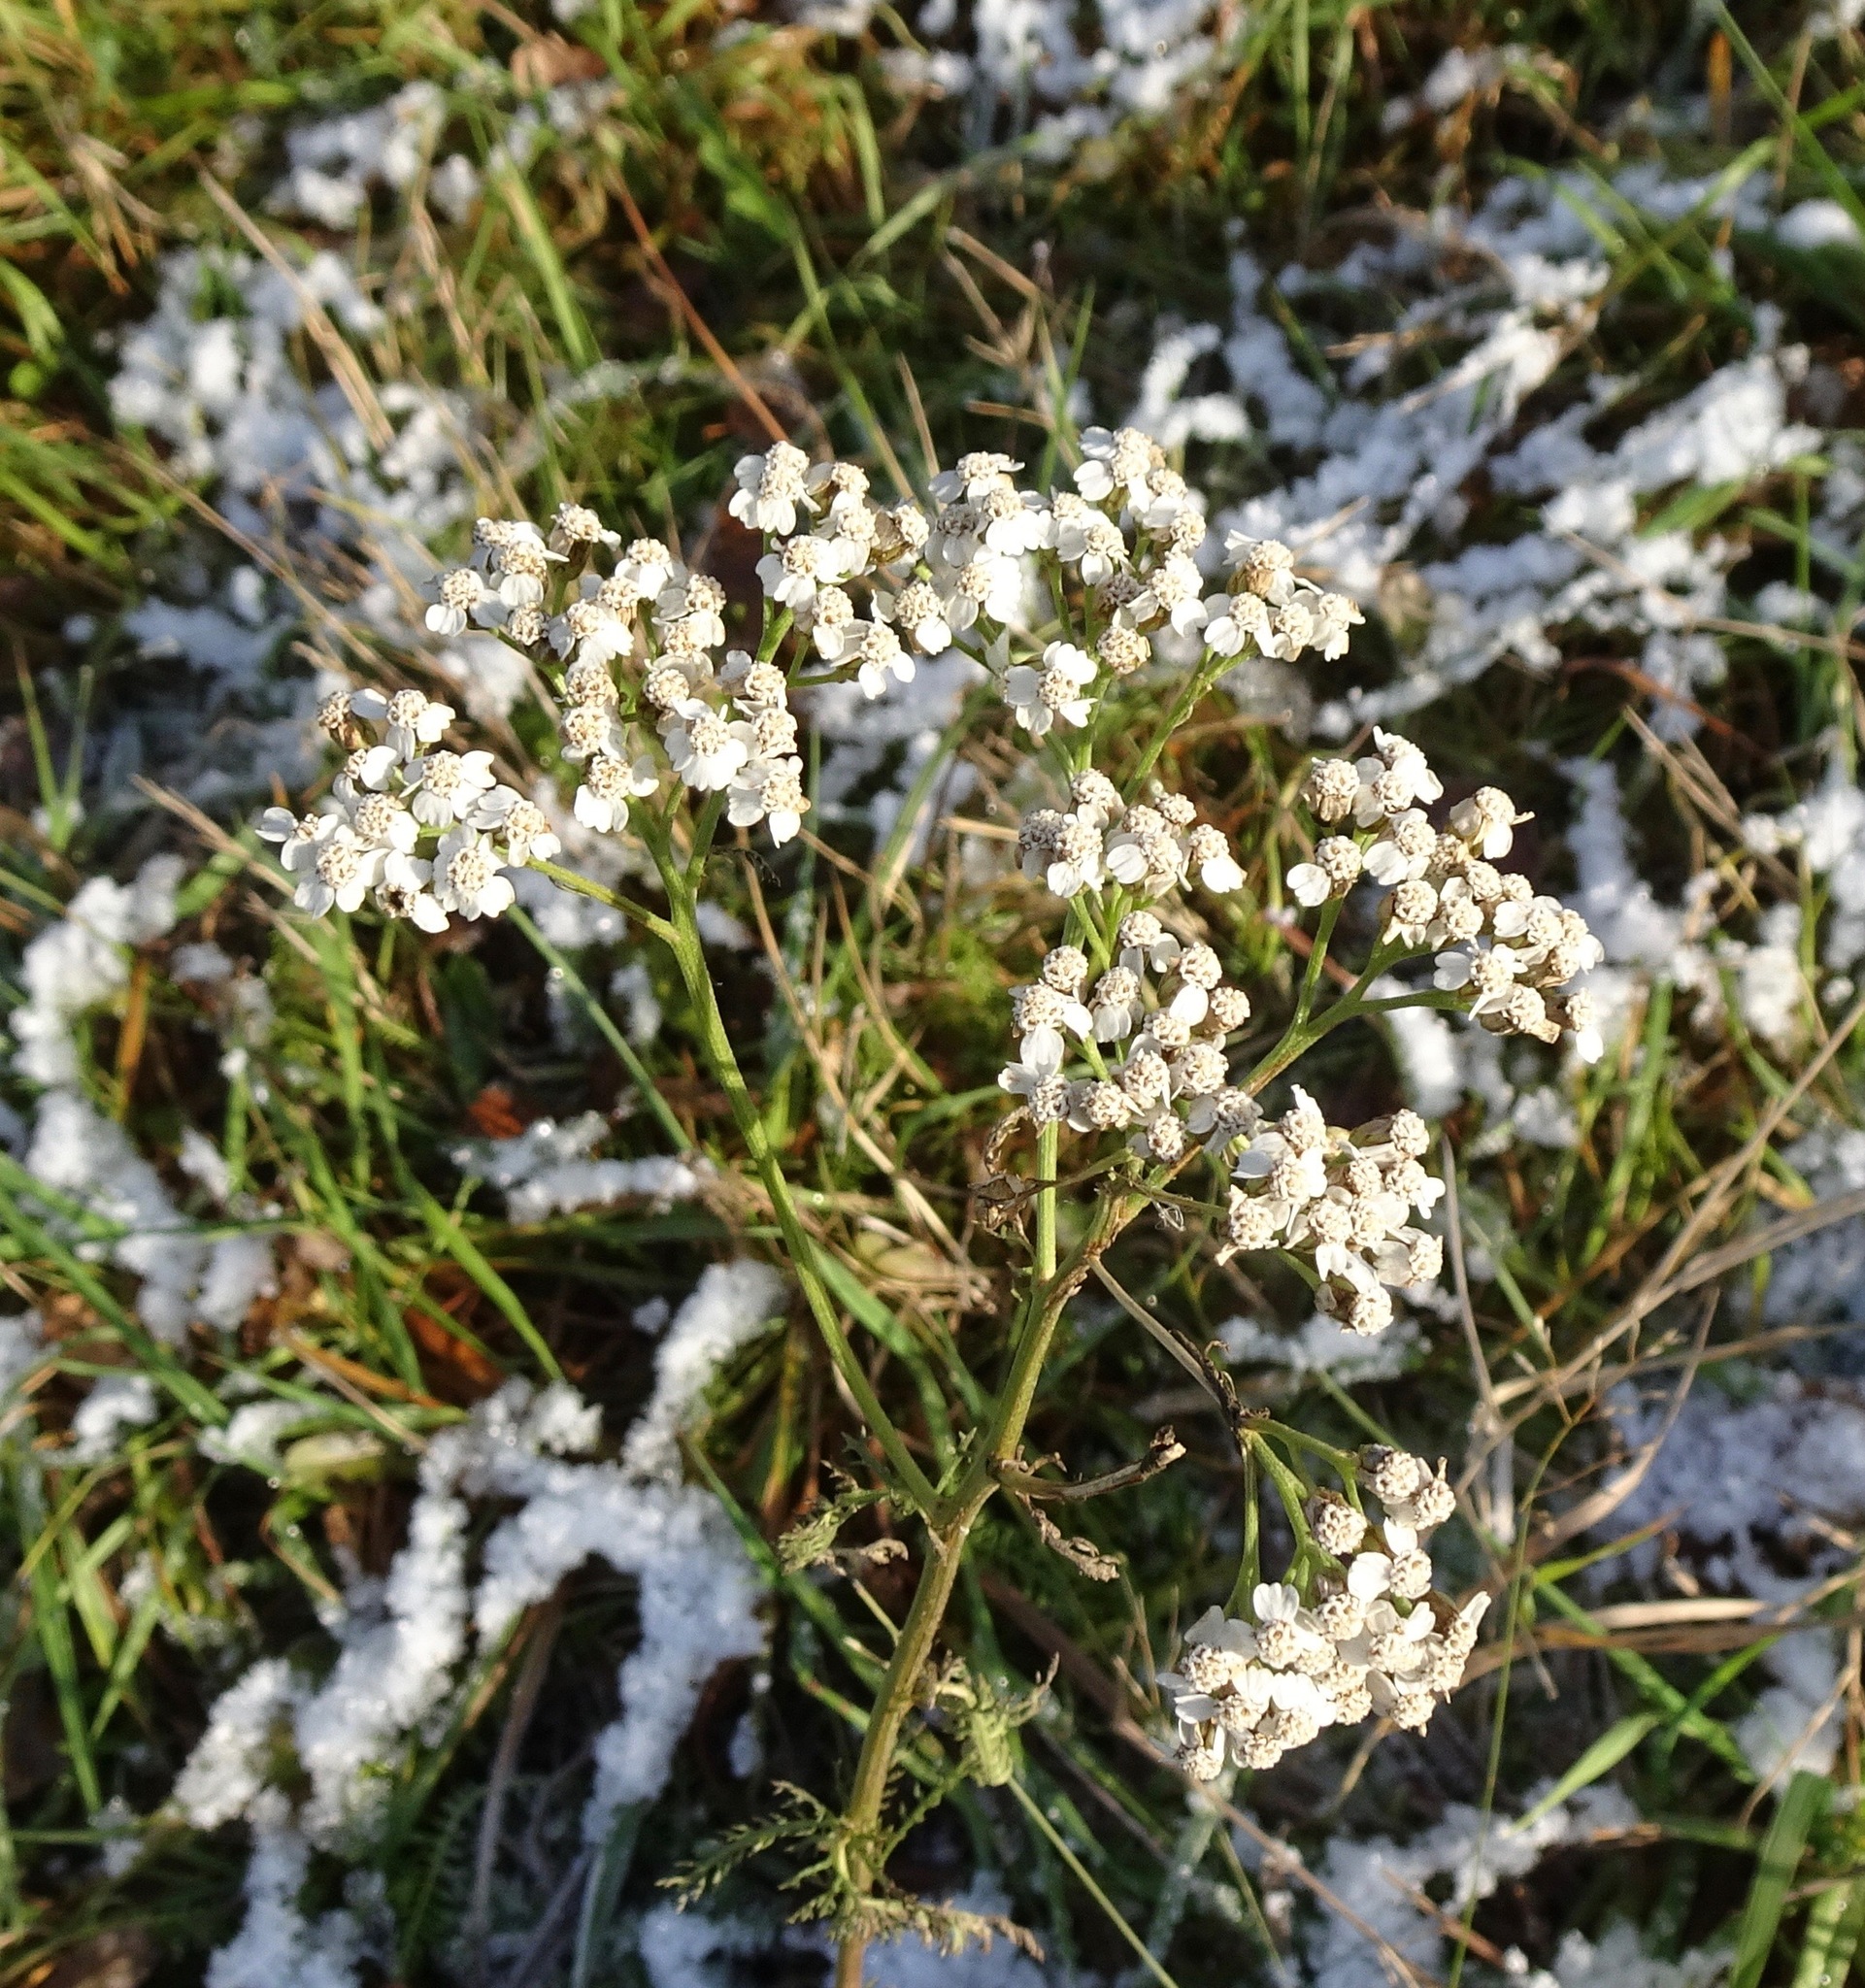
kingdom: Plantae
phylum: Tracheophyta
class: Magnoliopsida
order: Asterales
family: Asteraceae
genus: Achillea
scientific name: Achillea millefolium
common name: Yarrow
